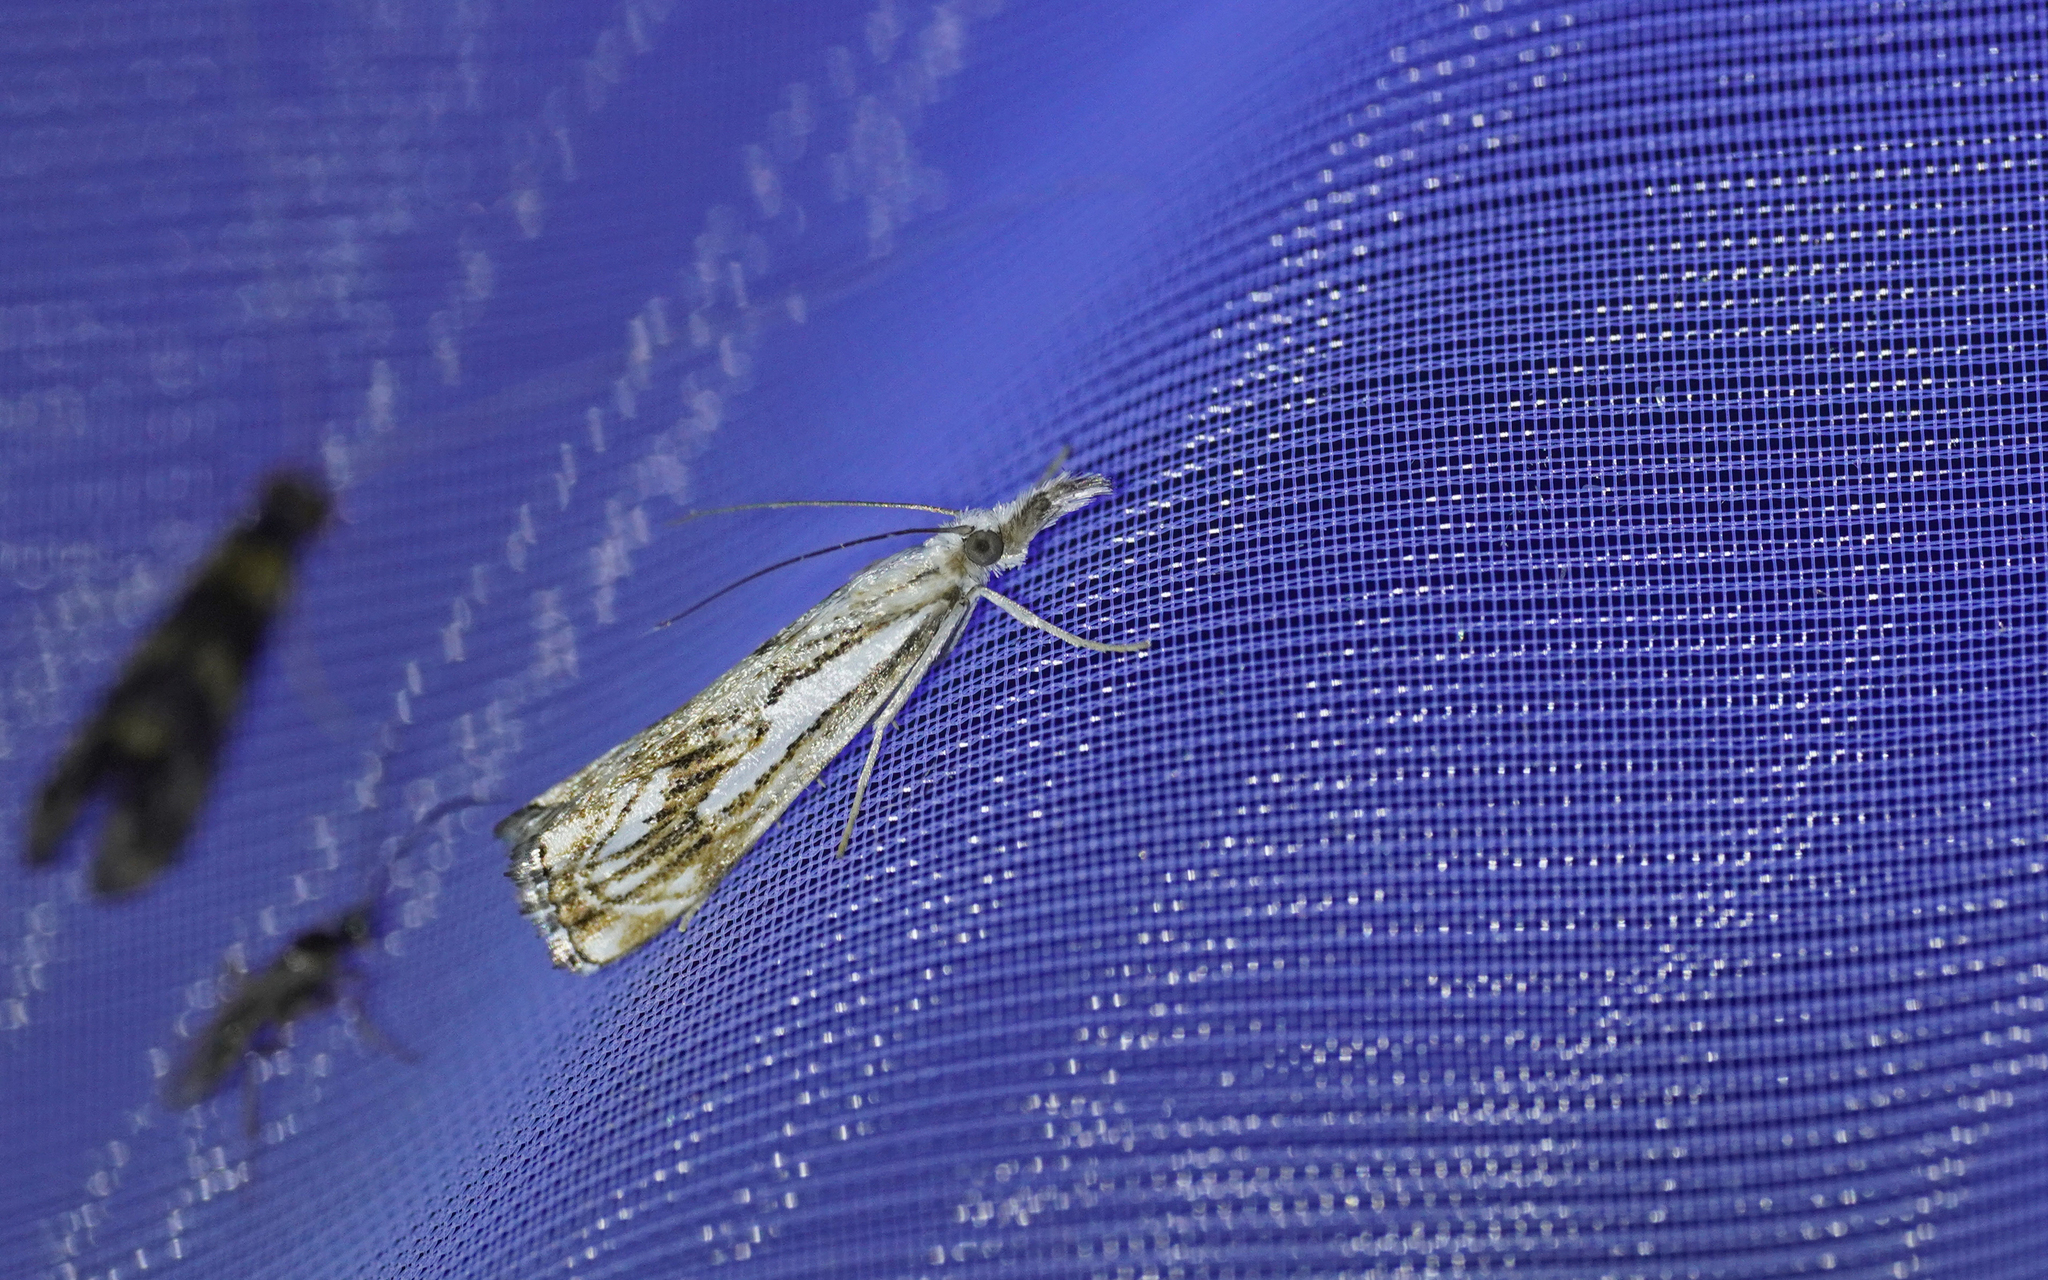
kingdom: Animalia
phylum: Arthropoda
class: Insecta
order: Lepidoptera
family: Crambidae
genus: Catoptria
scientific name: Catoptria falsella
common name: Chequered grass-veneer
